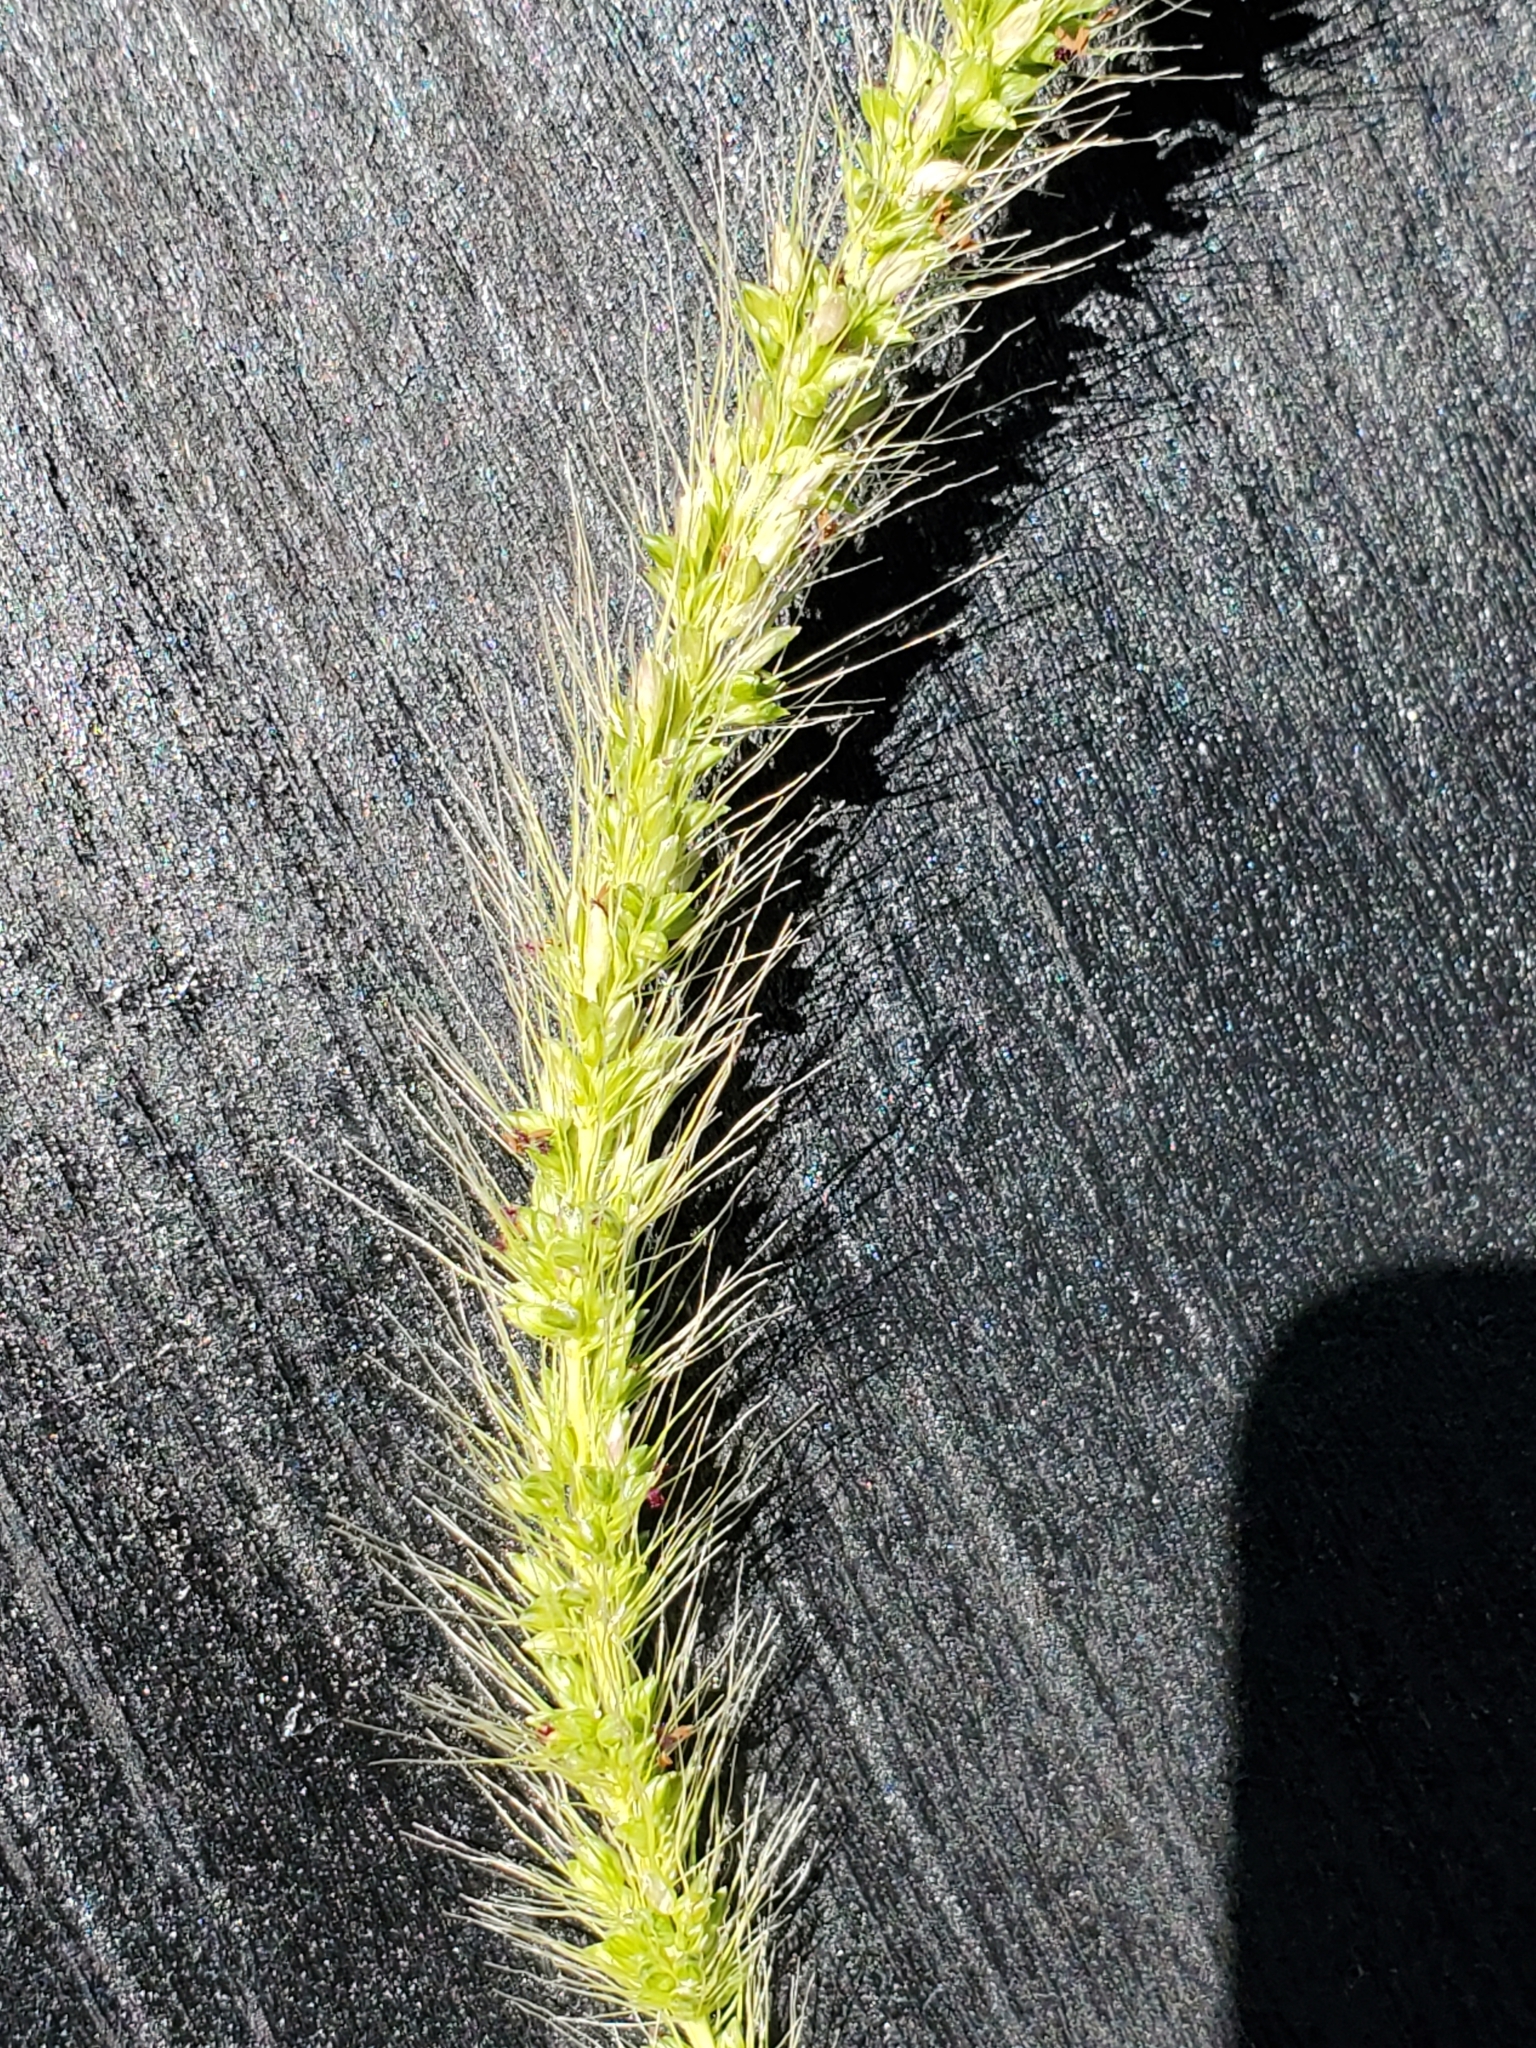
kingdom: Plantae
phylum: Tracheophyta
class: Liliopsida
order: Poales
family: Poaceae
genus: Setaria
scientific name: Setaria scheelei
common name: Southwestern bristle grass
